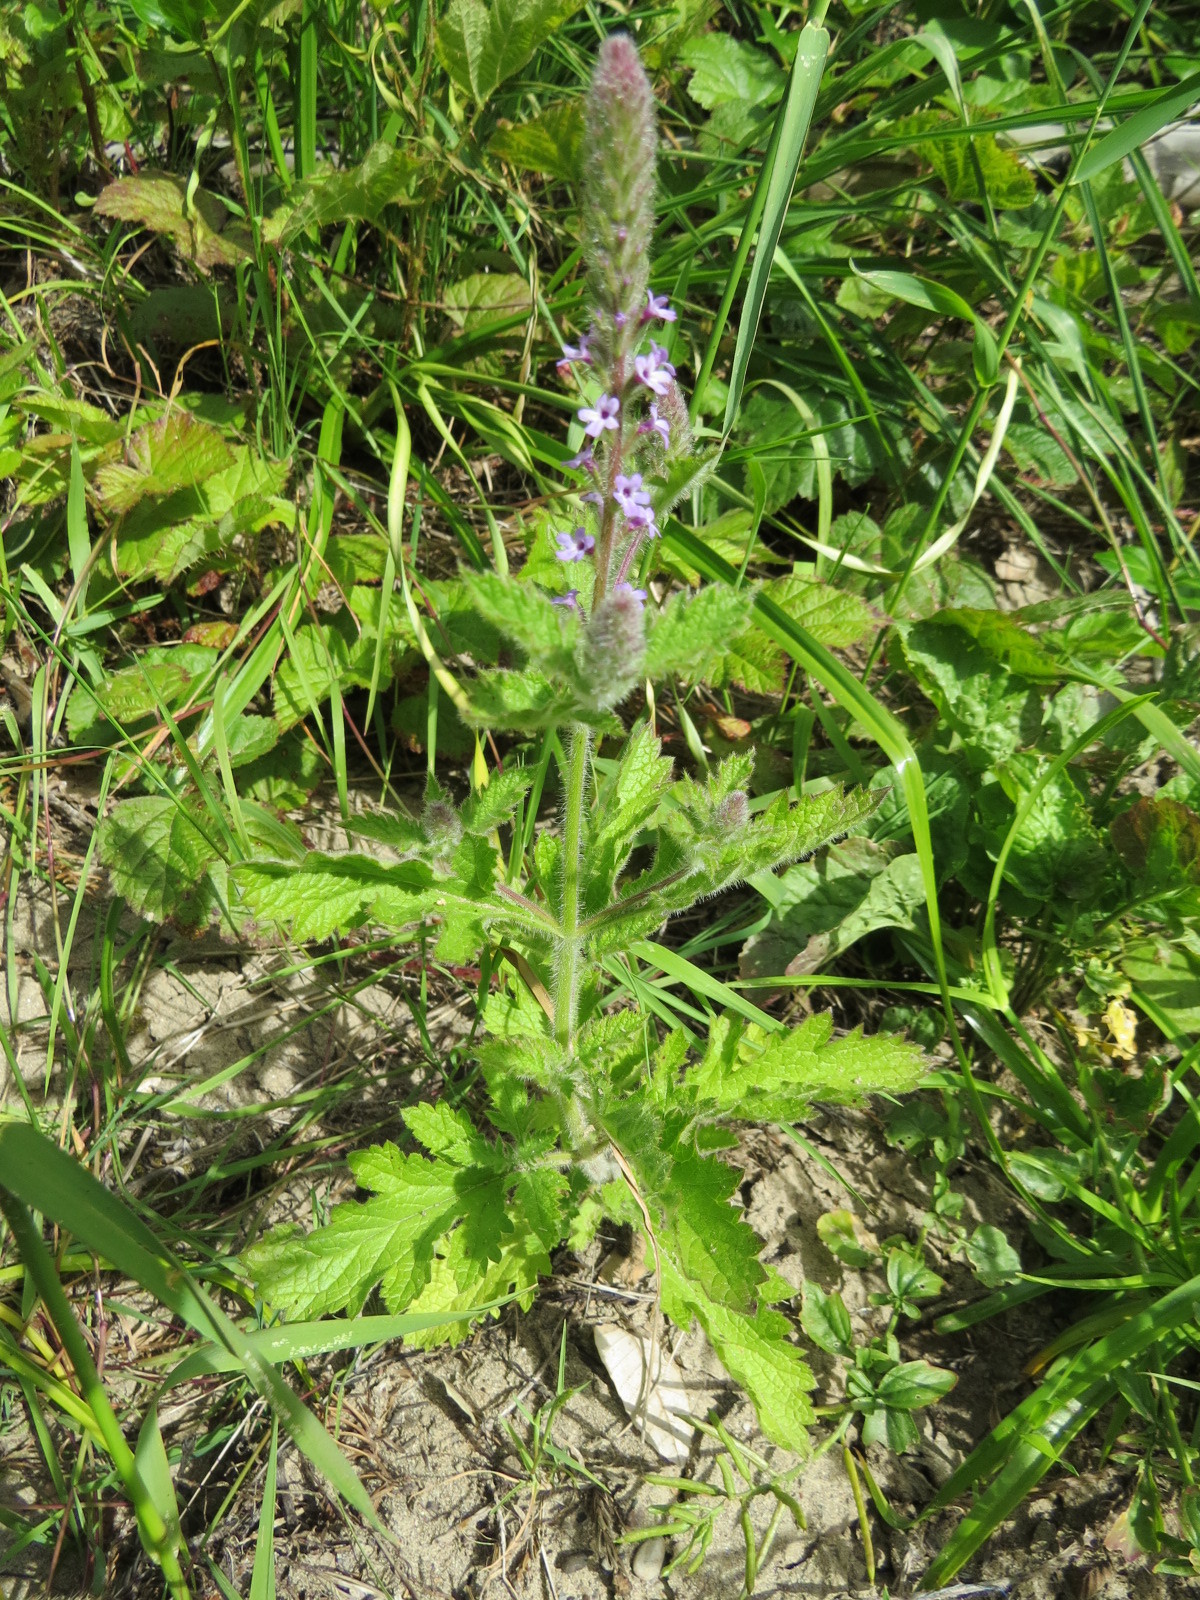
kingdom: Plantae
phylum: Tracheophyta
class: Magnoliopsida
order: Lamiales
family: Verbenaceae
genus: Verbena
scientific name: Verbena lasiostachys
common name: Vervain
